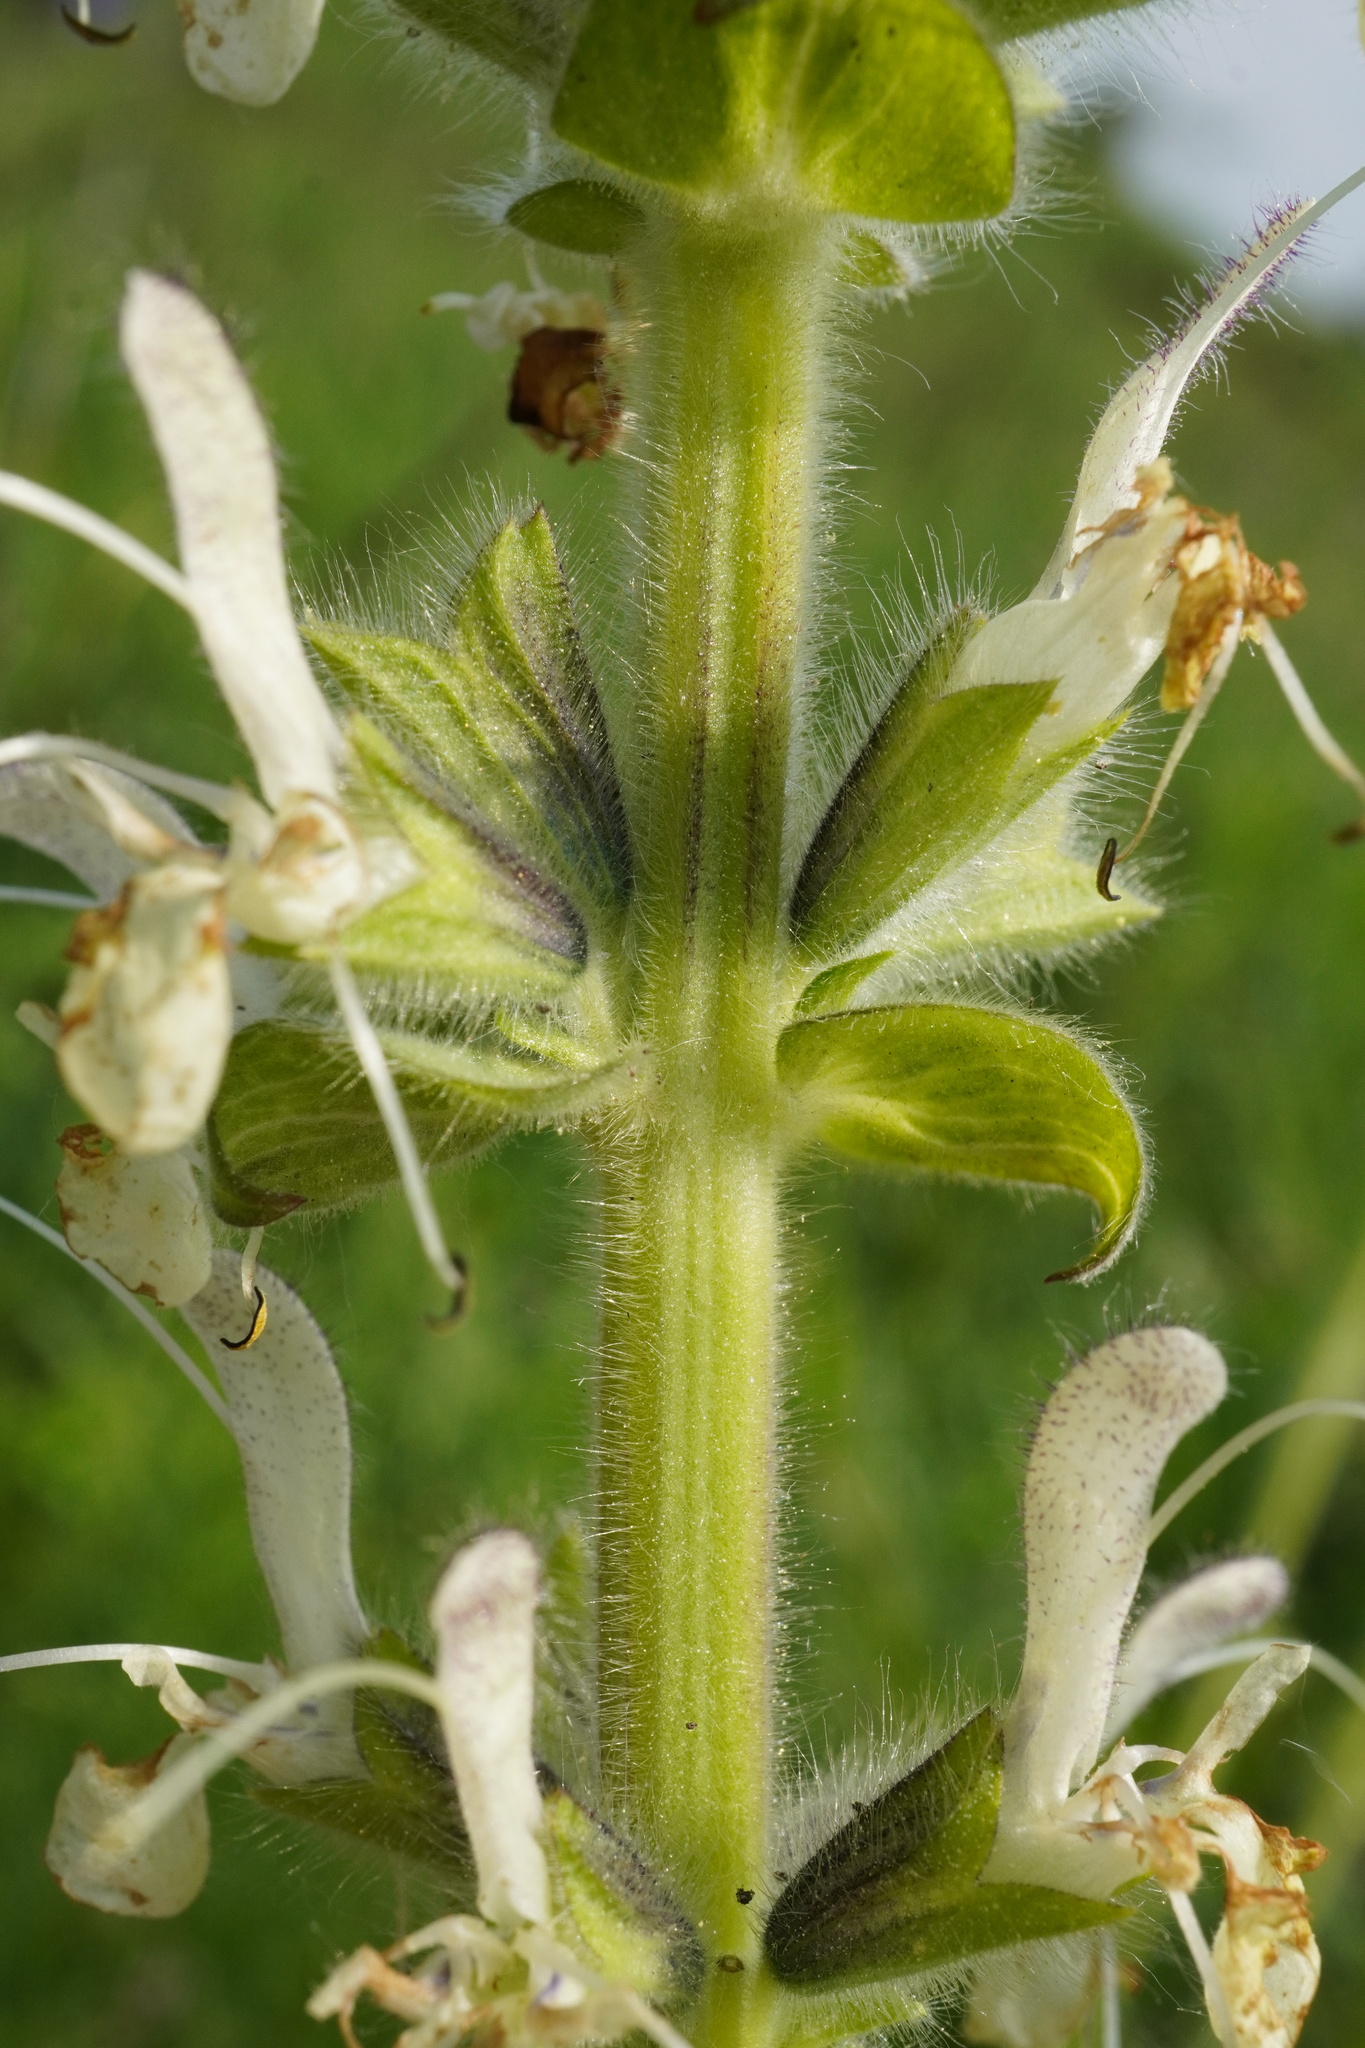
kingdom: Plantae
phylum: Tracheophyta
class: Magnoliopsida
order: Lamiales
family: Lamiaceae
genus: Salvia
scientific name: Salvia austriaca
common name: Austrian sage
